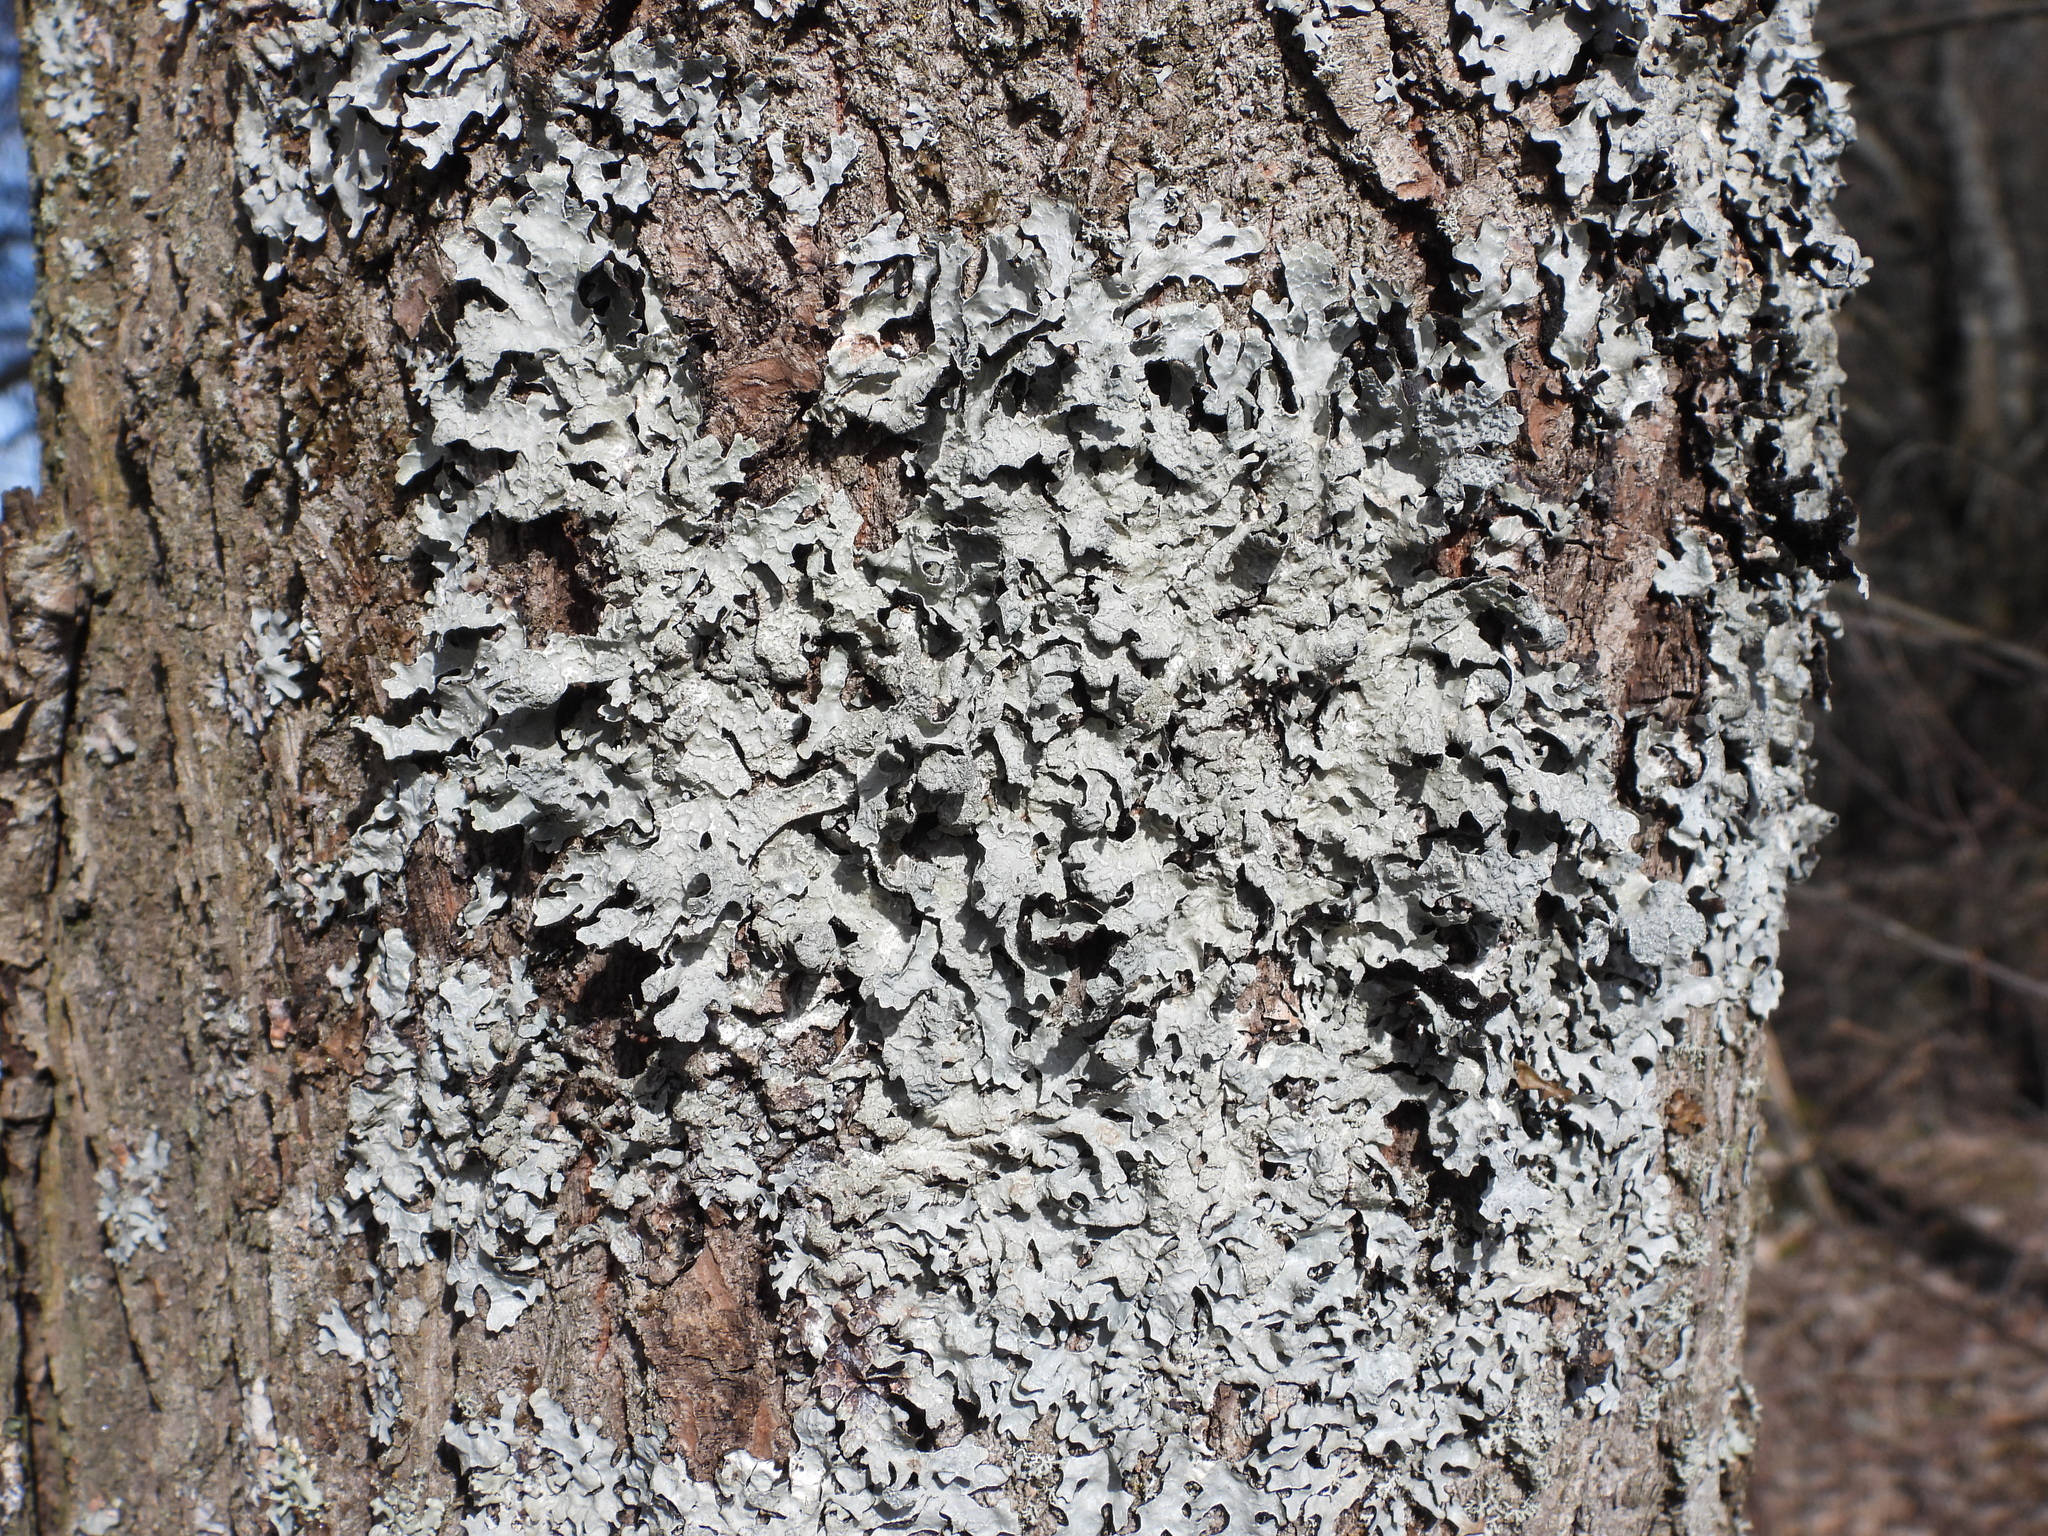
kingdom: Fungi
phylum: Ascomycota
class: Lecanoromycetes
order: Lecanorales
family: Parmeliaceae
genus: Parmelia
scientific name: Parmelia sulcata
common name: Netted shield lichen
